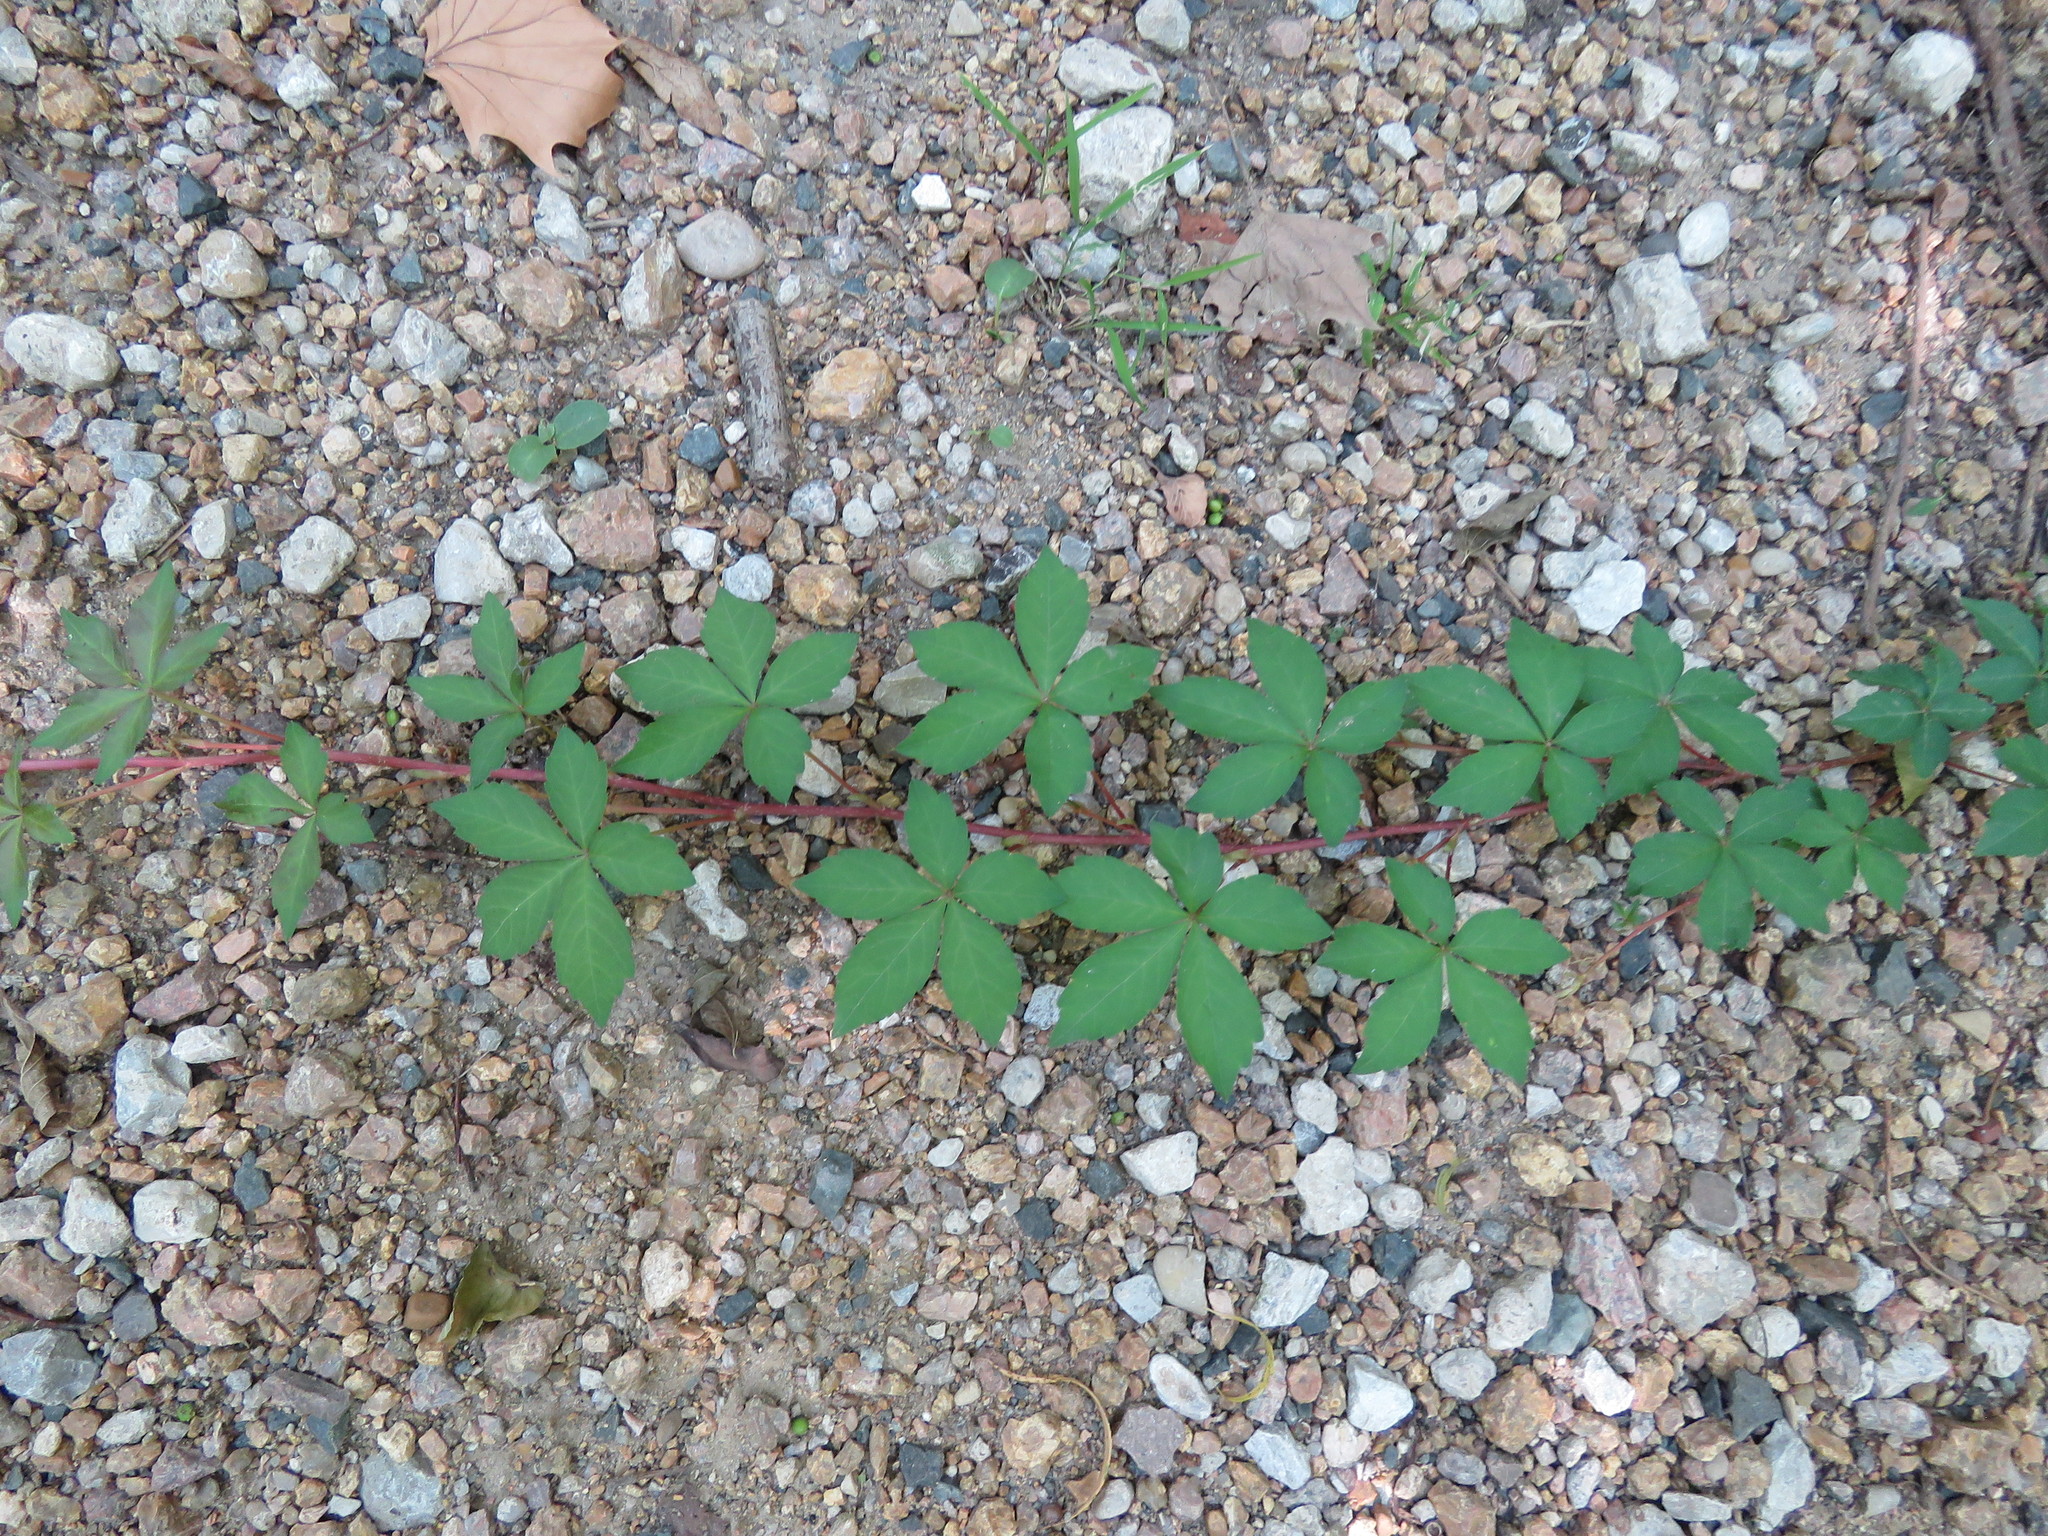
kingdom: Plantae
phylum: Tracheophyta
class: Magnoliopsida
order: Vitales
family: Vitaceae
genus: Parthenocissus
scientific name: Parthenocissus quinquefolia
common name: Virginia-creeper
